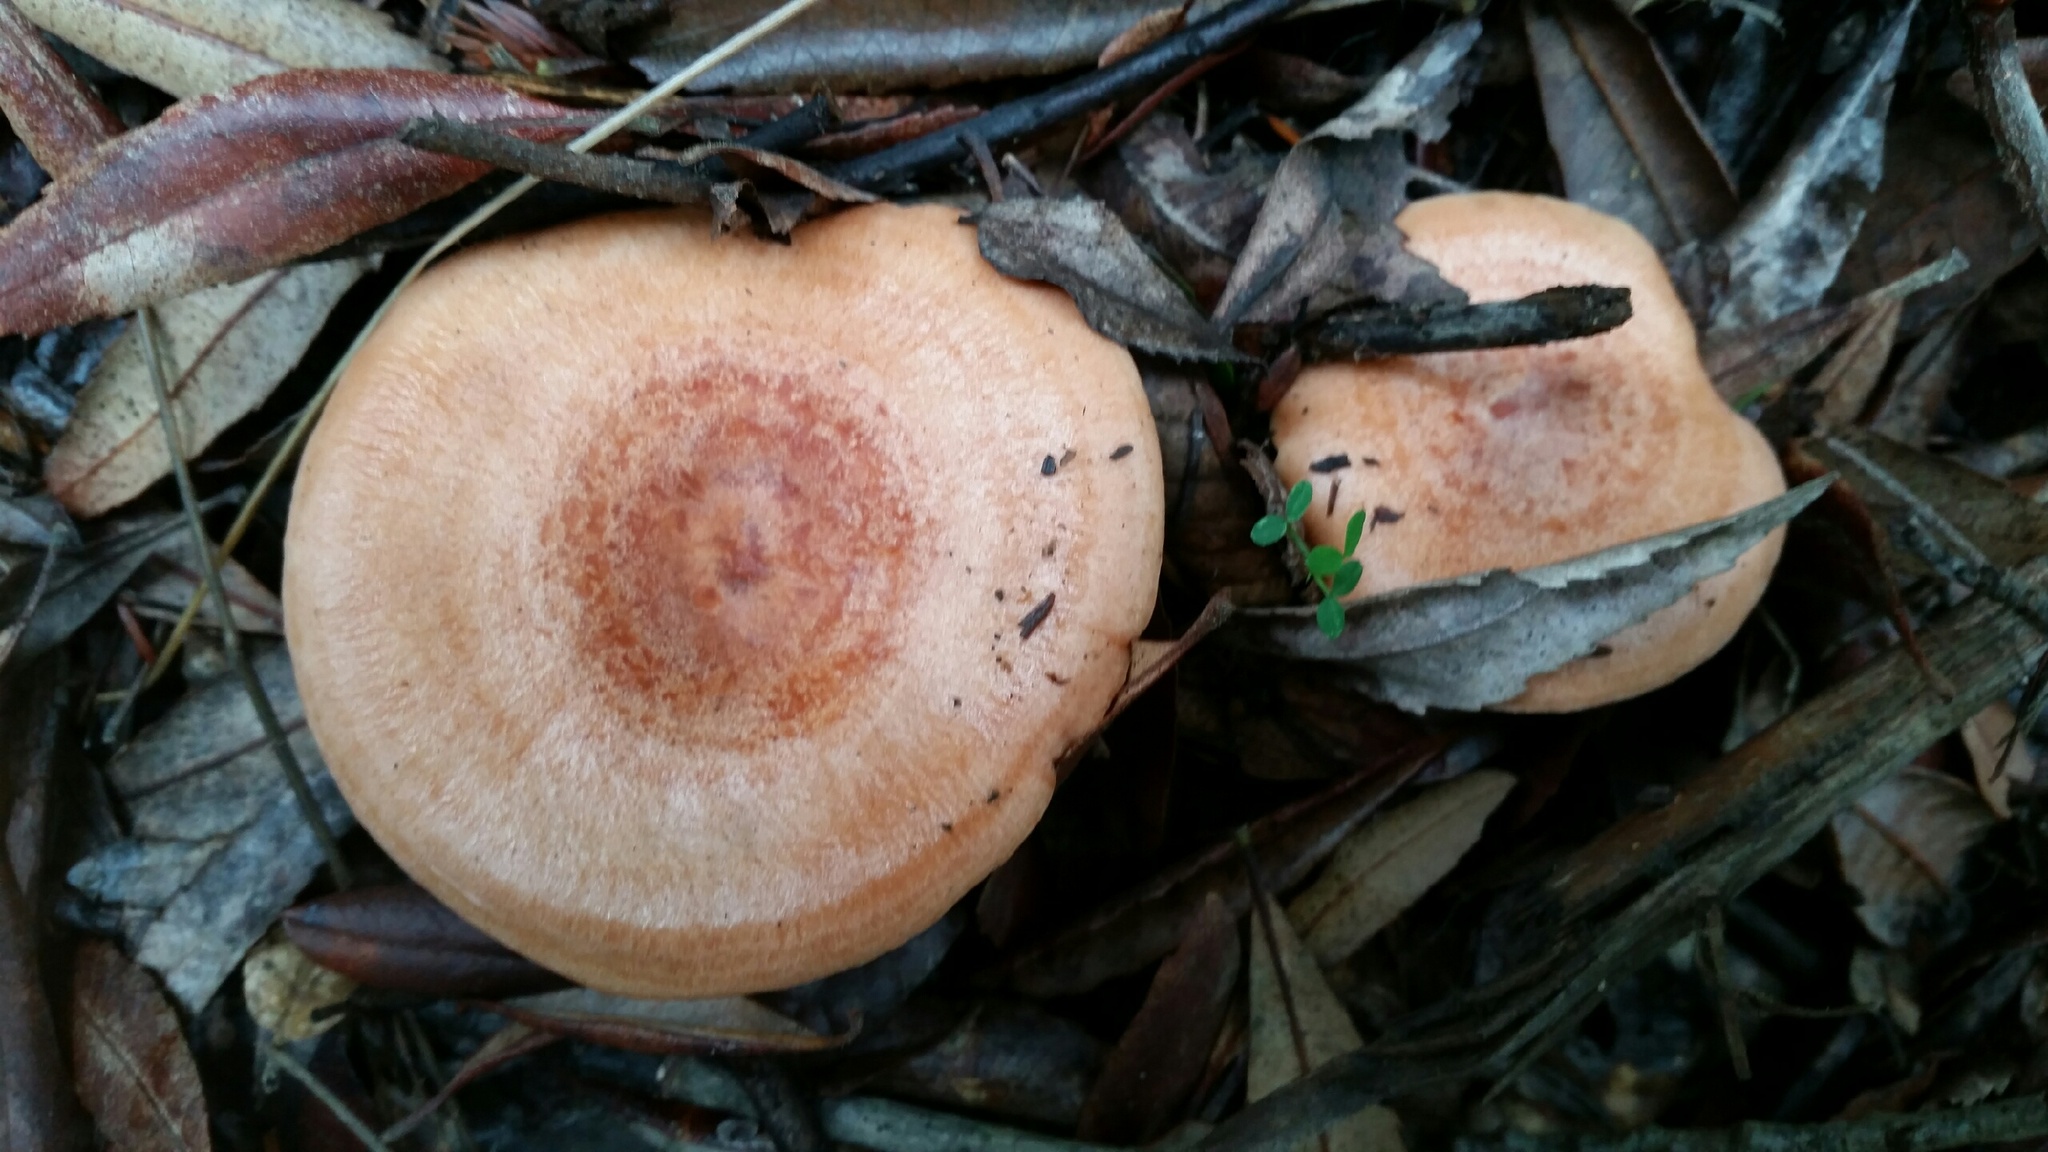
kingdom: Fungi
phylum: Basidiomycota
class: Agaricomycetes
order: Russulales
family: Russulaceae
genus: Lactarius
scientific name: Lactarius xanthogalactus
